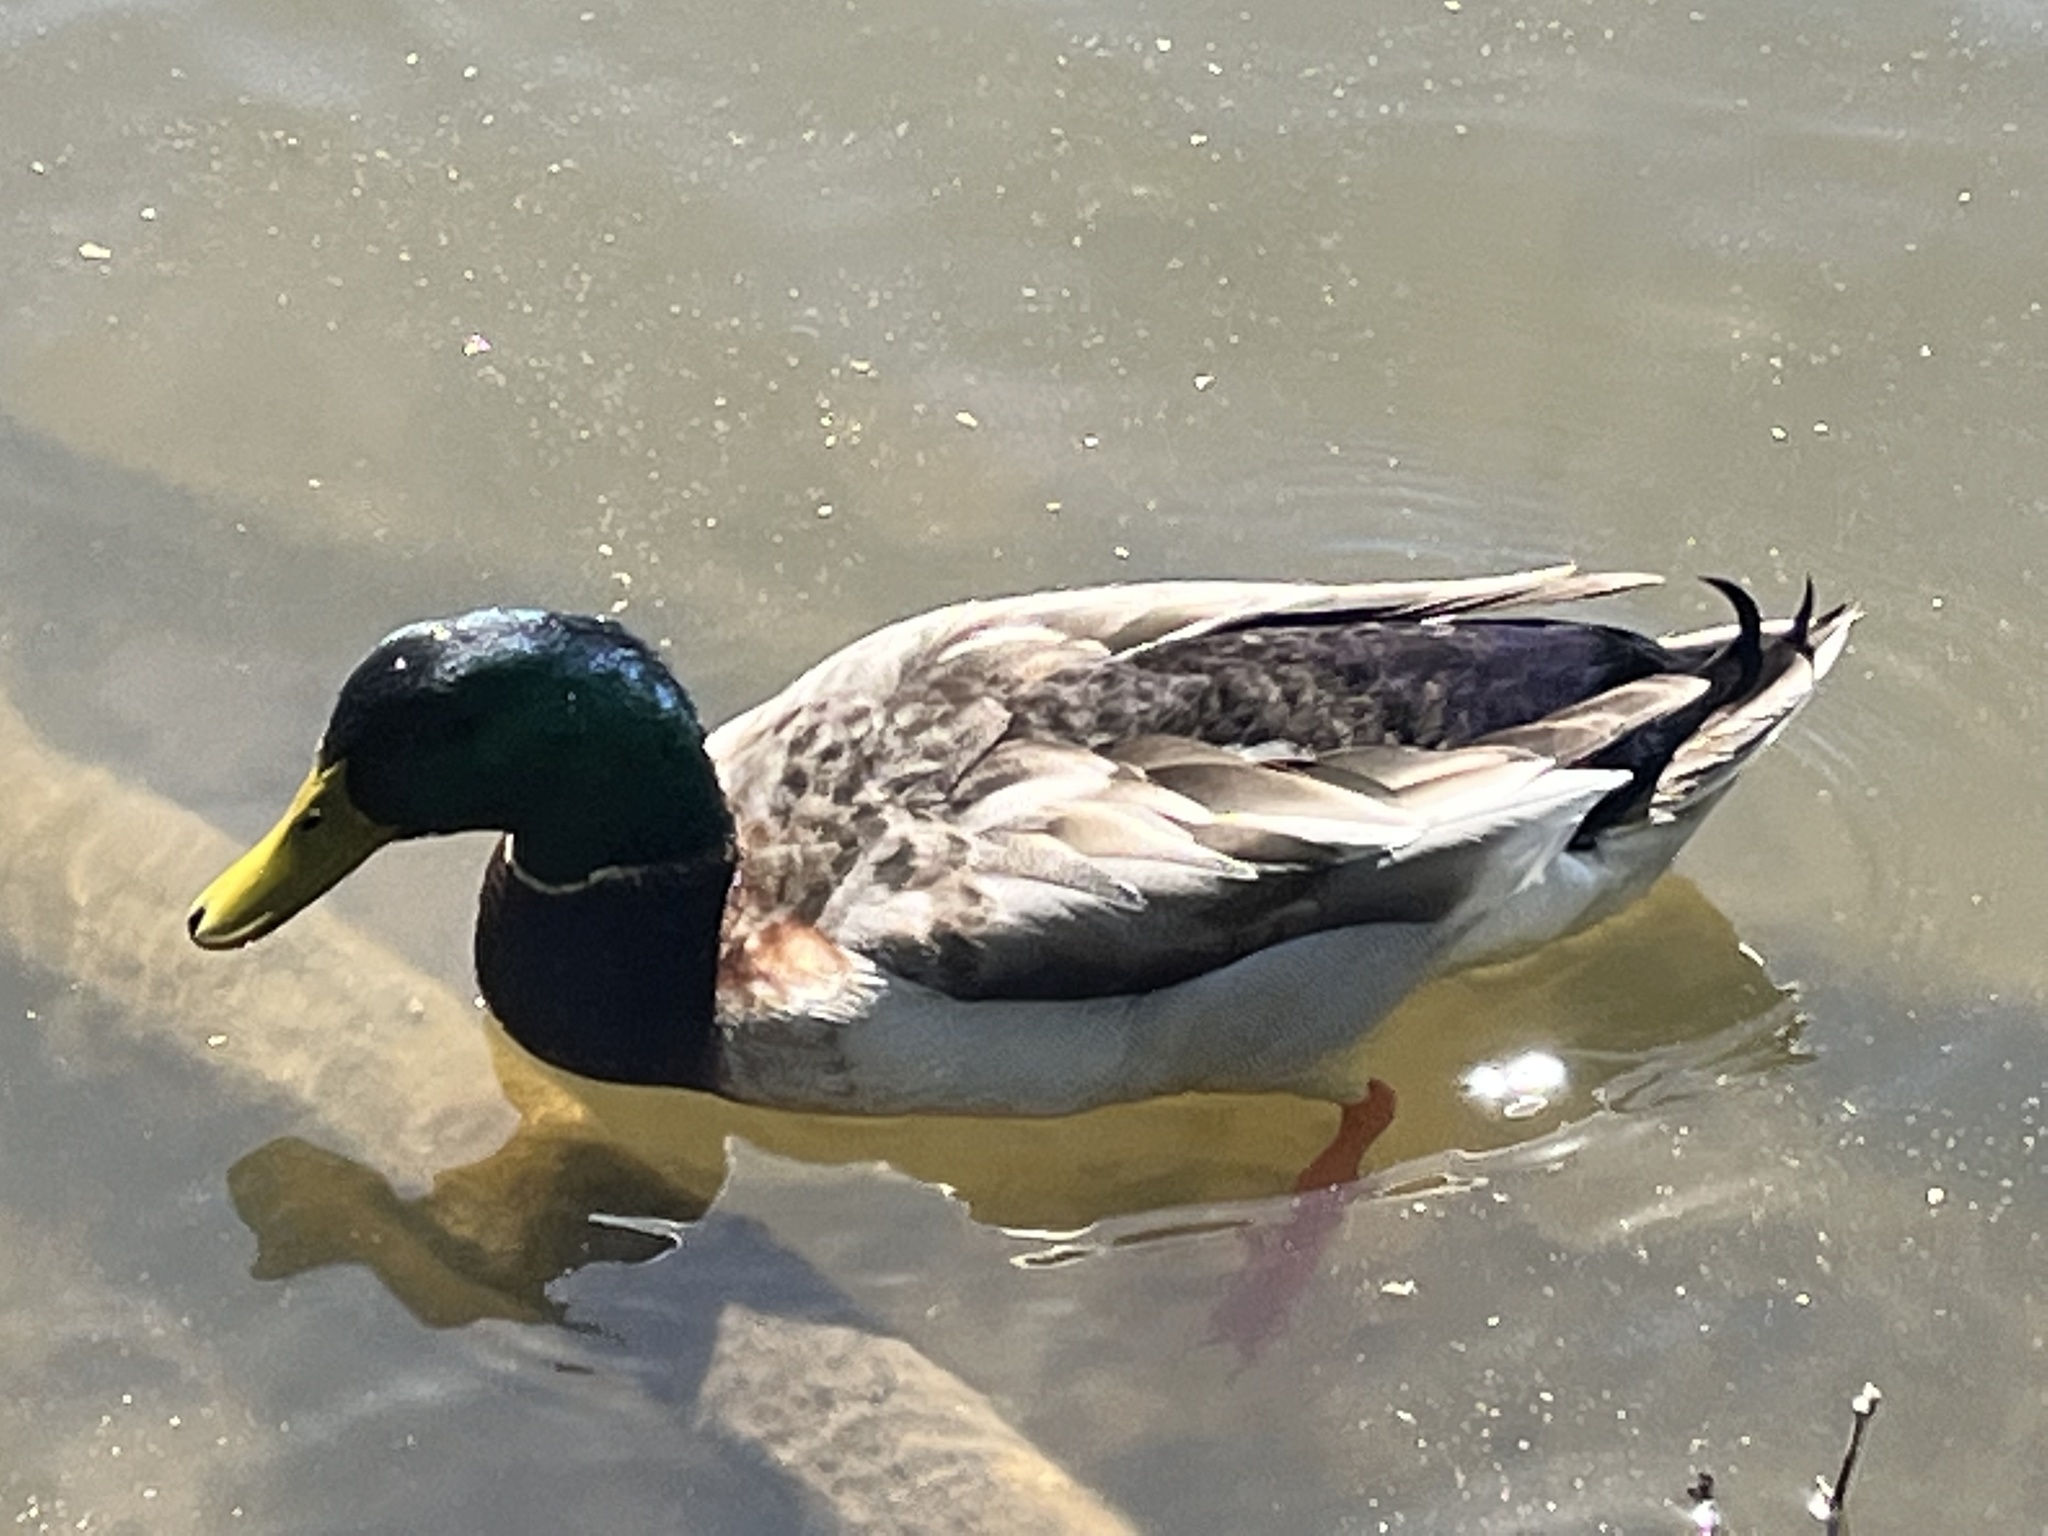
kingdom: Animalia
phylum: Chordata
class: Aves
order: Anseriformes
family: Anatidae
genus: Anas
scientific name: Anas platyrhynchos
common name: Mallard
